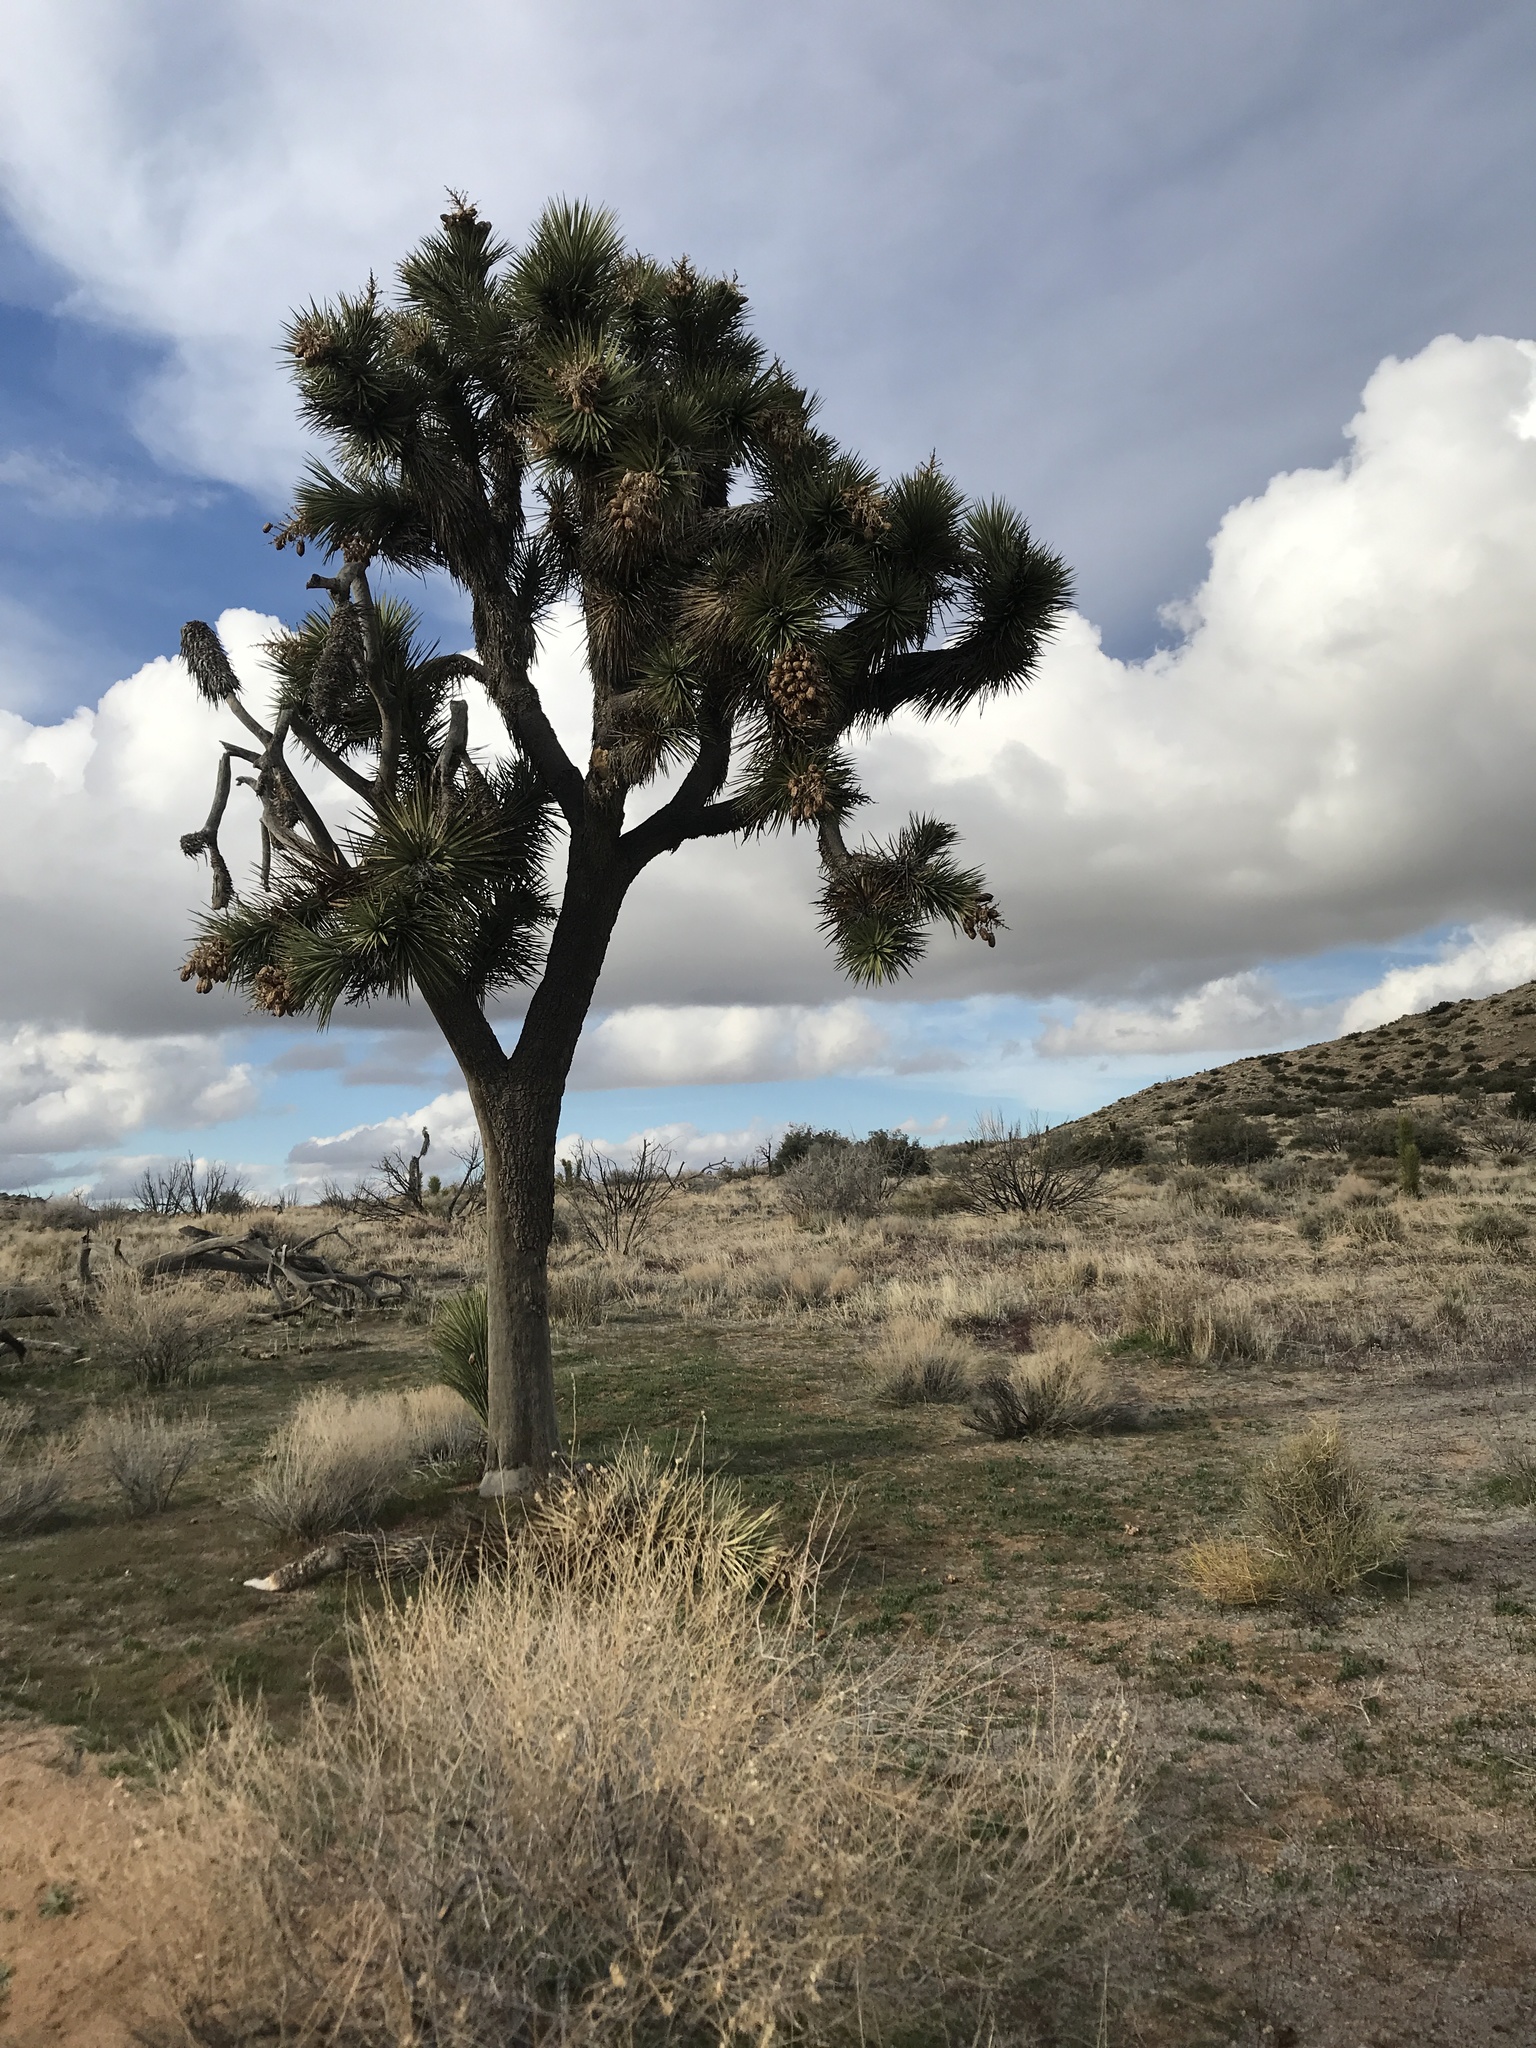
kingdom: Plantae
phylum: Tracheophyta
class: Liliopsida
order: Asparagales
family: Asparagaceae
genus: Yucca
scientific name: Yucca brevifolia
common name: Joshua tree
